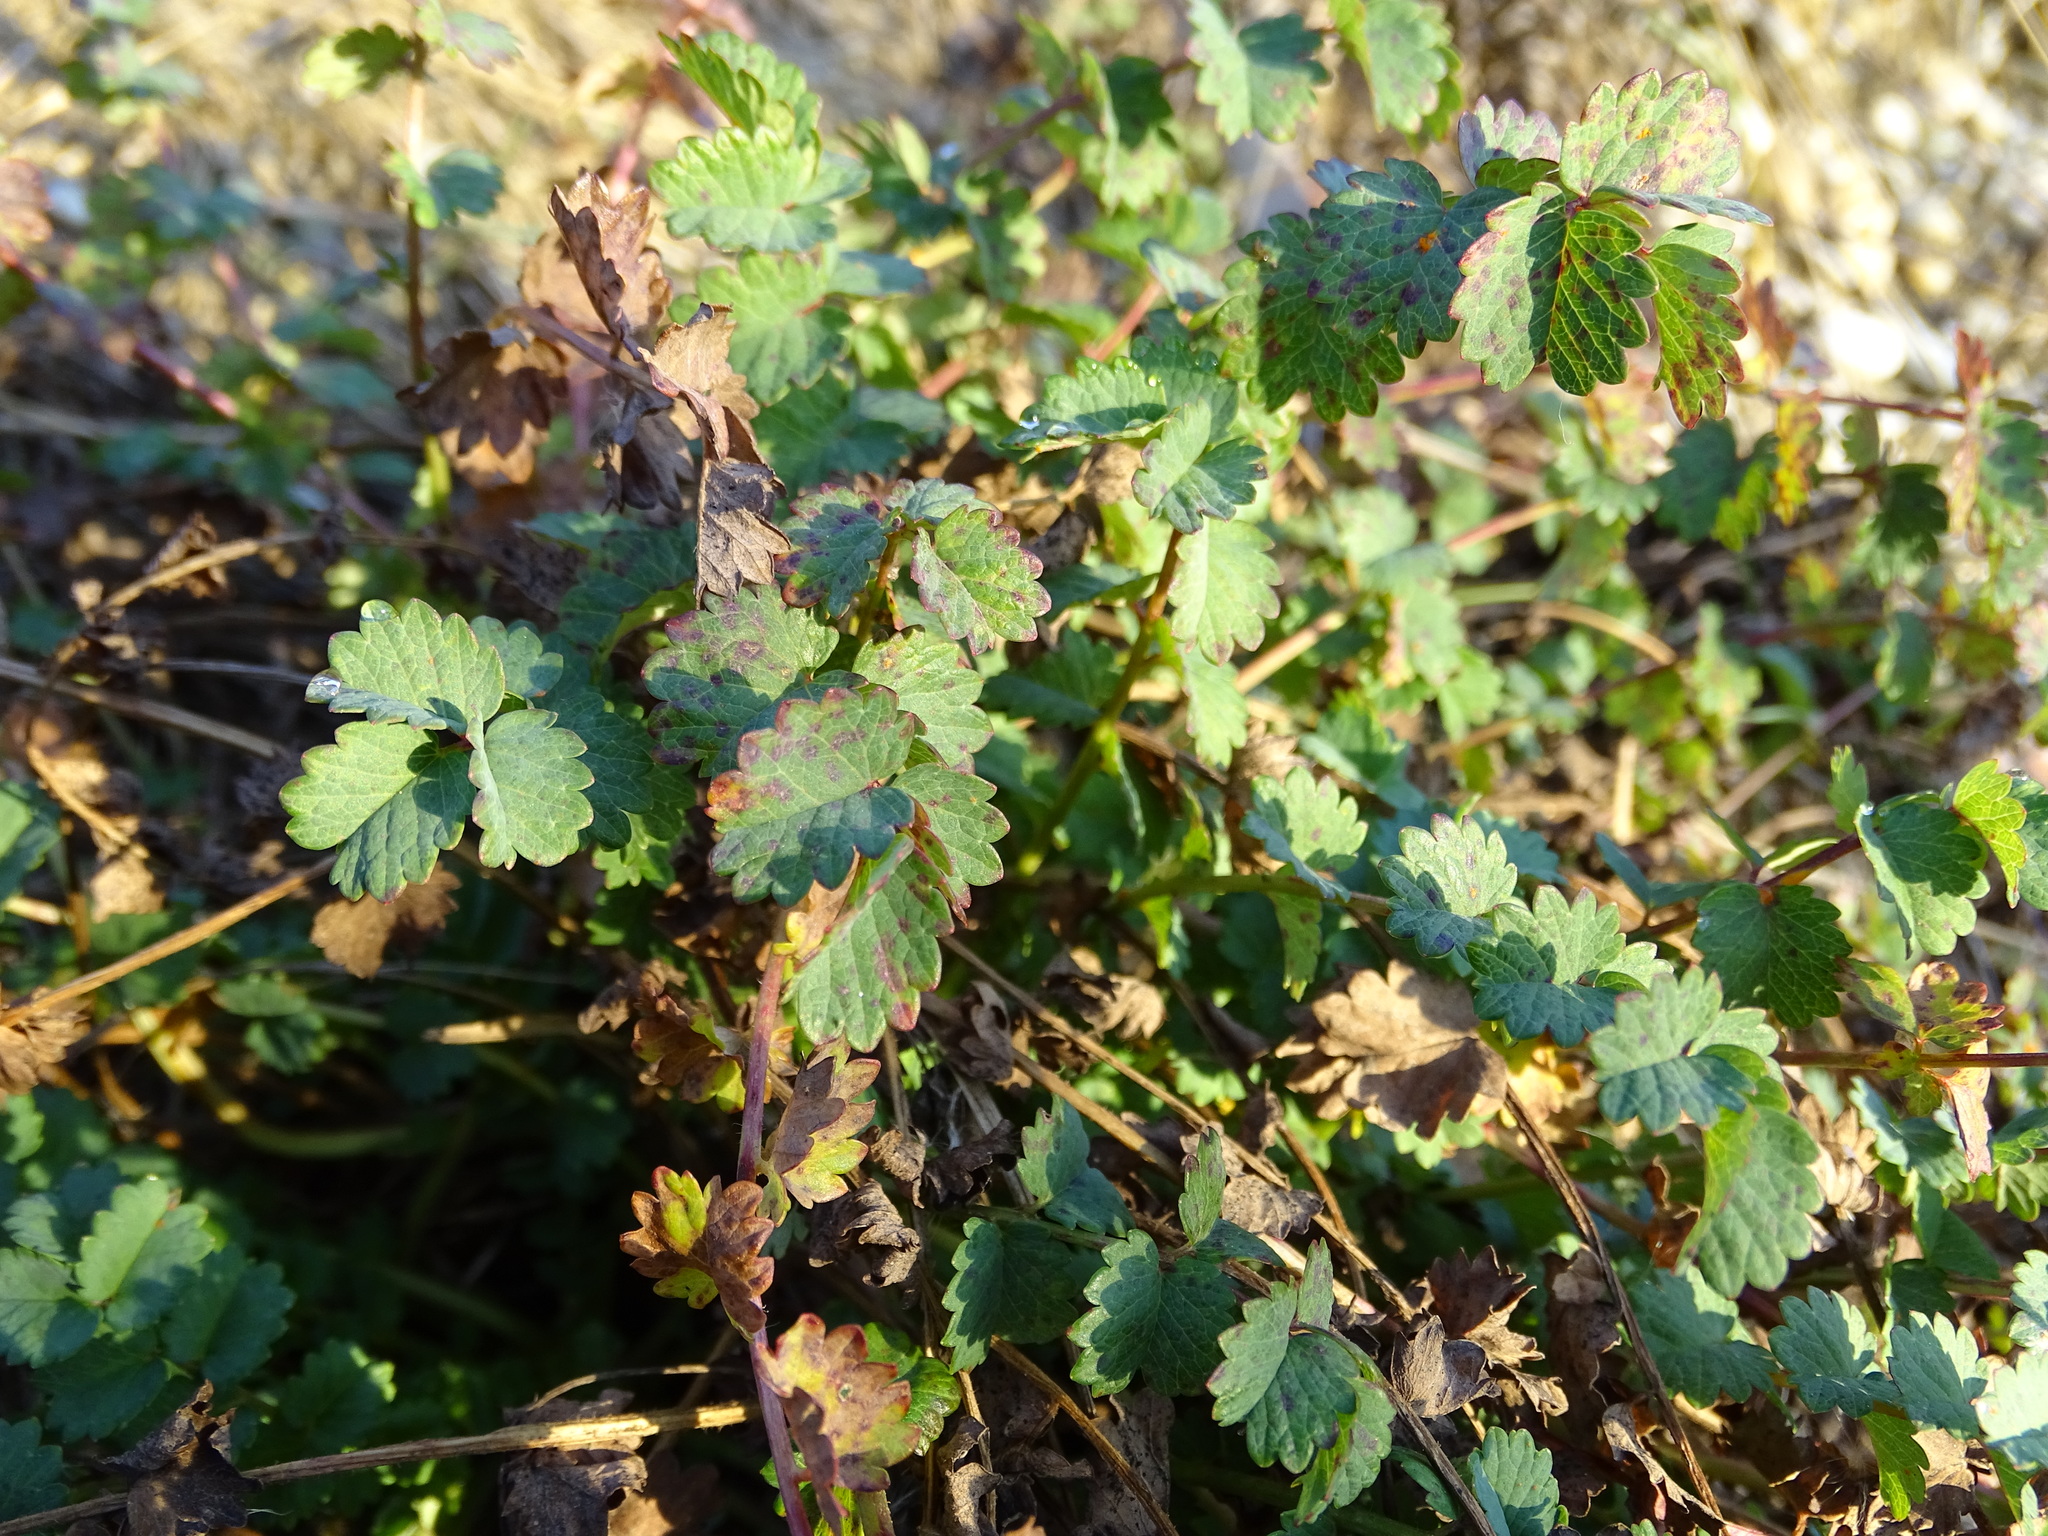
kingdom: Plantae
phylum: Tracheophyta
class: Magnoliopsida
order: Rosales
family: Rosaceae
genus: Poterium
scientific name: Poterium sanguisorba
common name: Salad burnet
